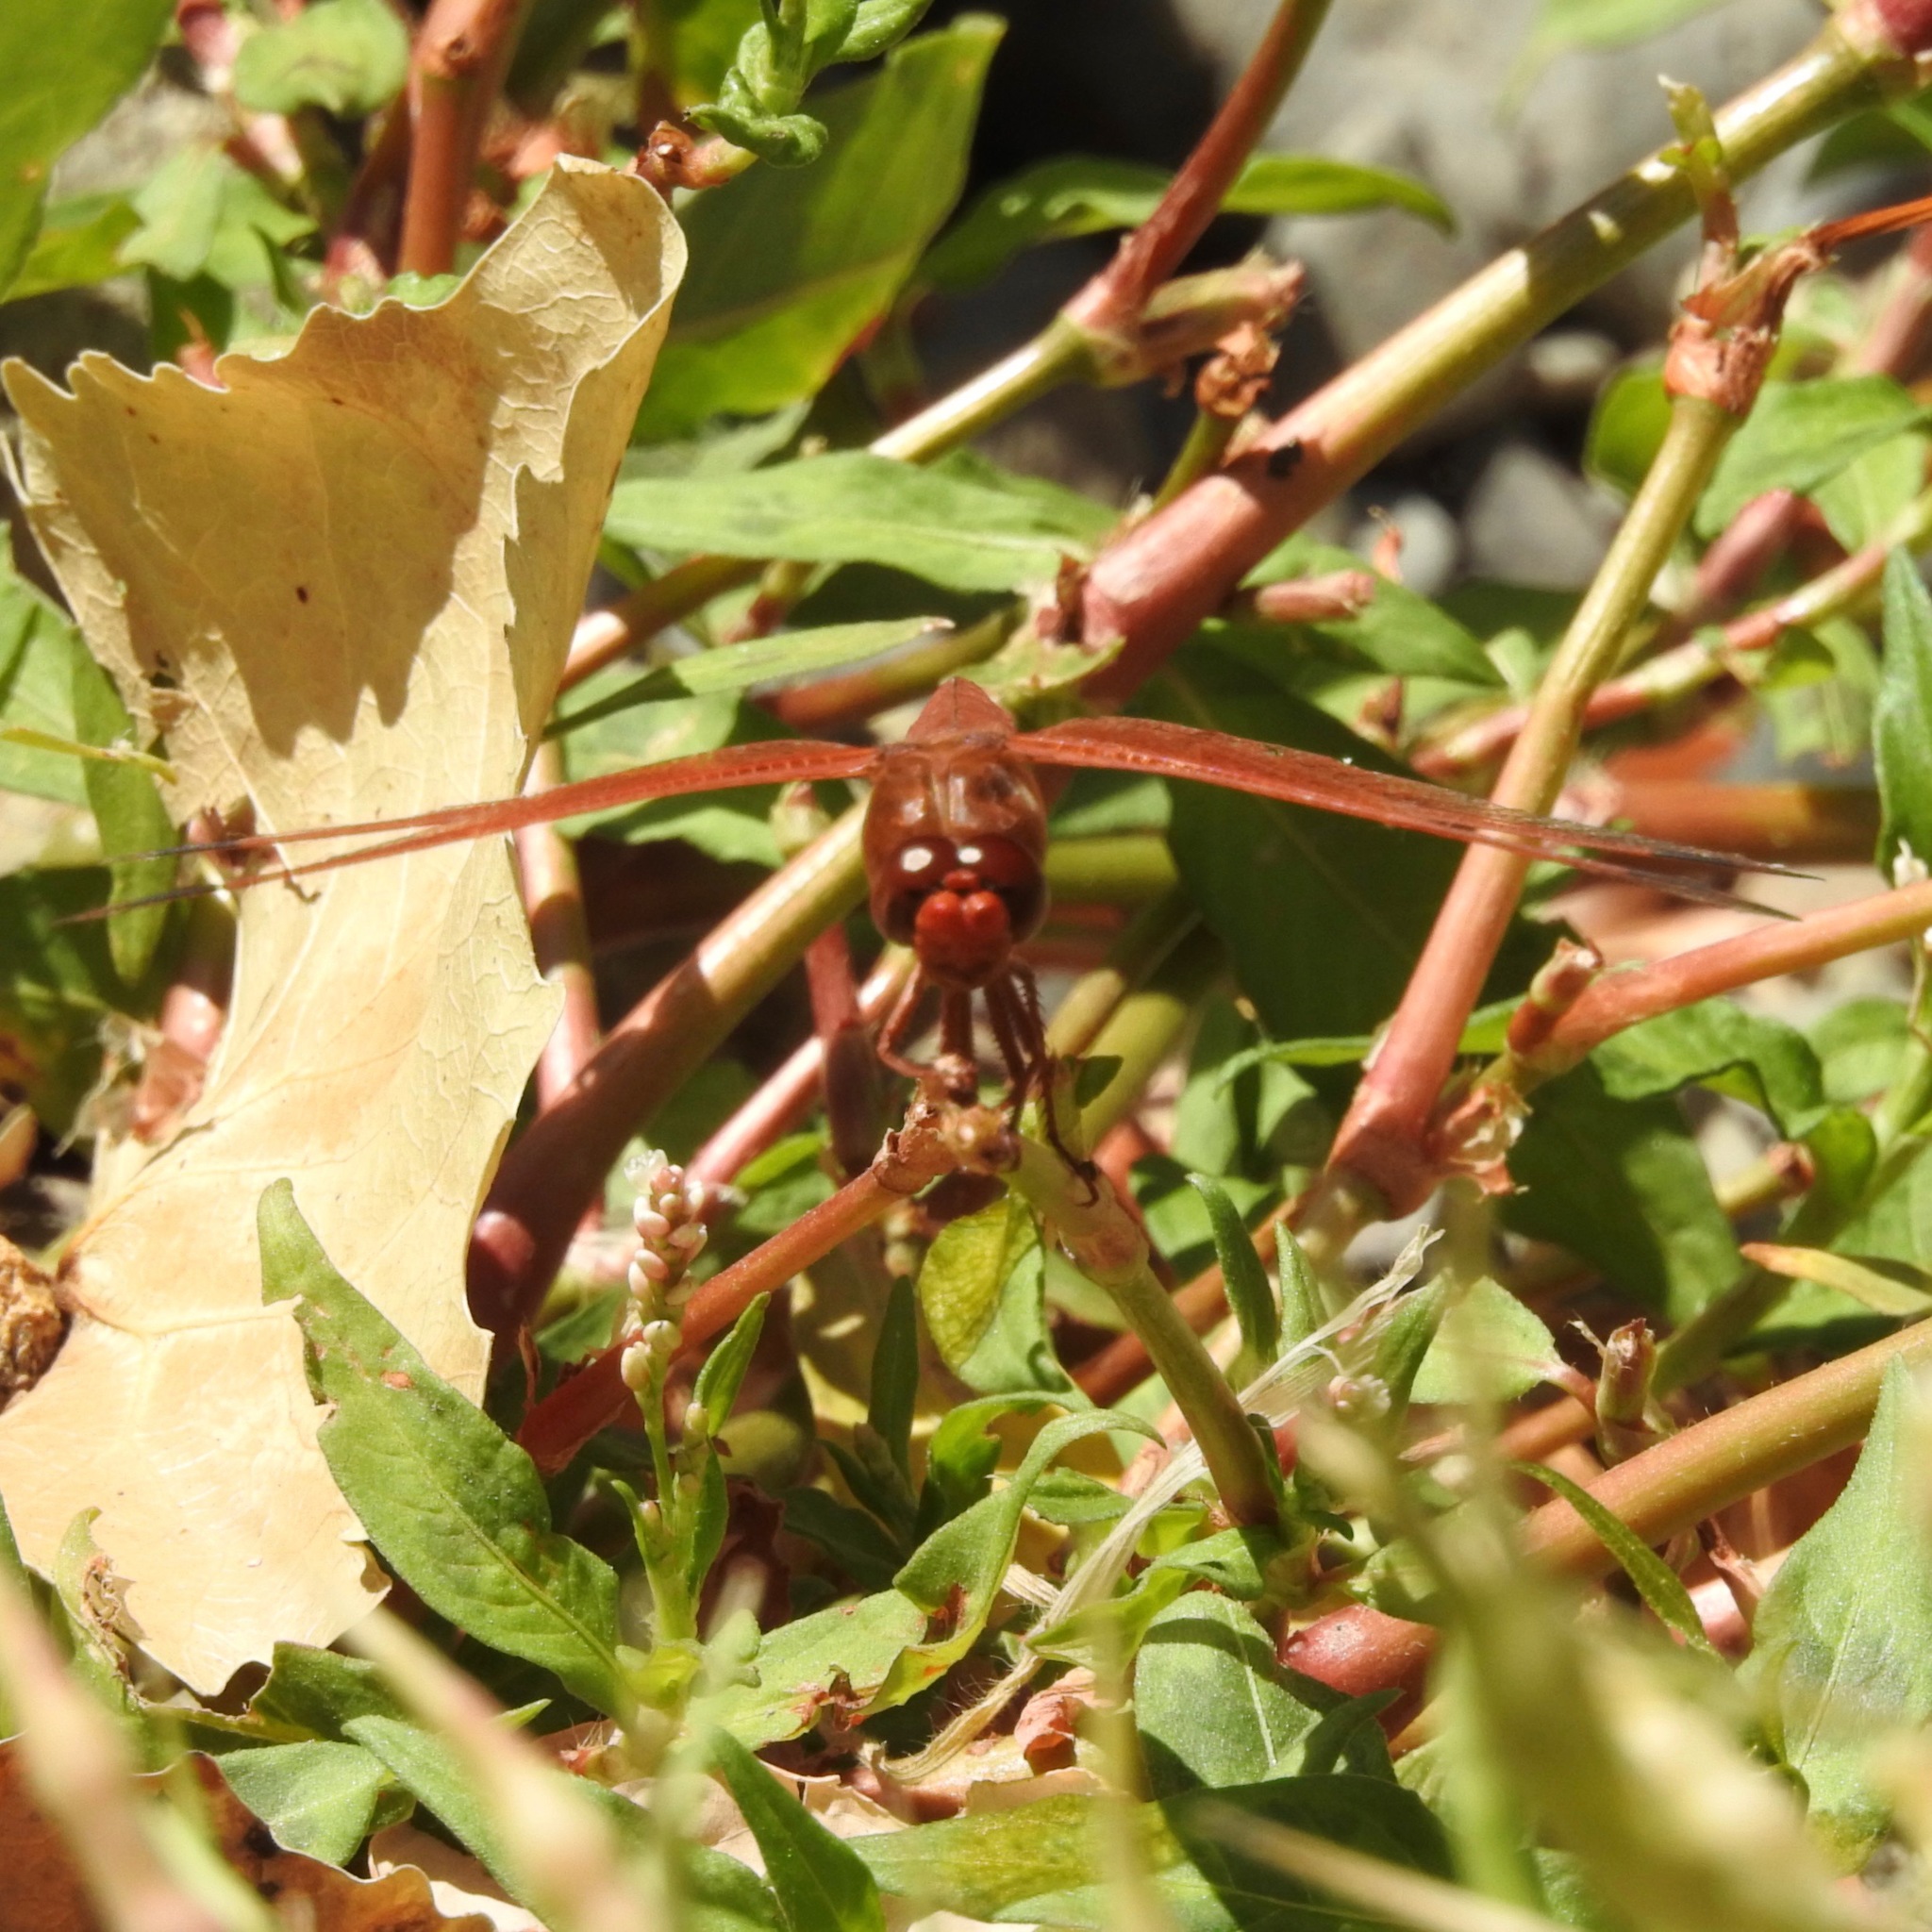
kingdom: Animalia
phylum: Arthropoda
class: Insecta
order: Odonata
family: Libellulidae
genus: Libellula
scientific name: Libellula saturata
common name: Flame skimmer
